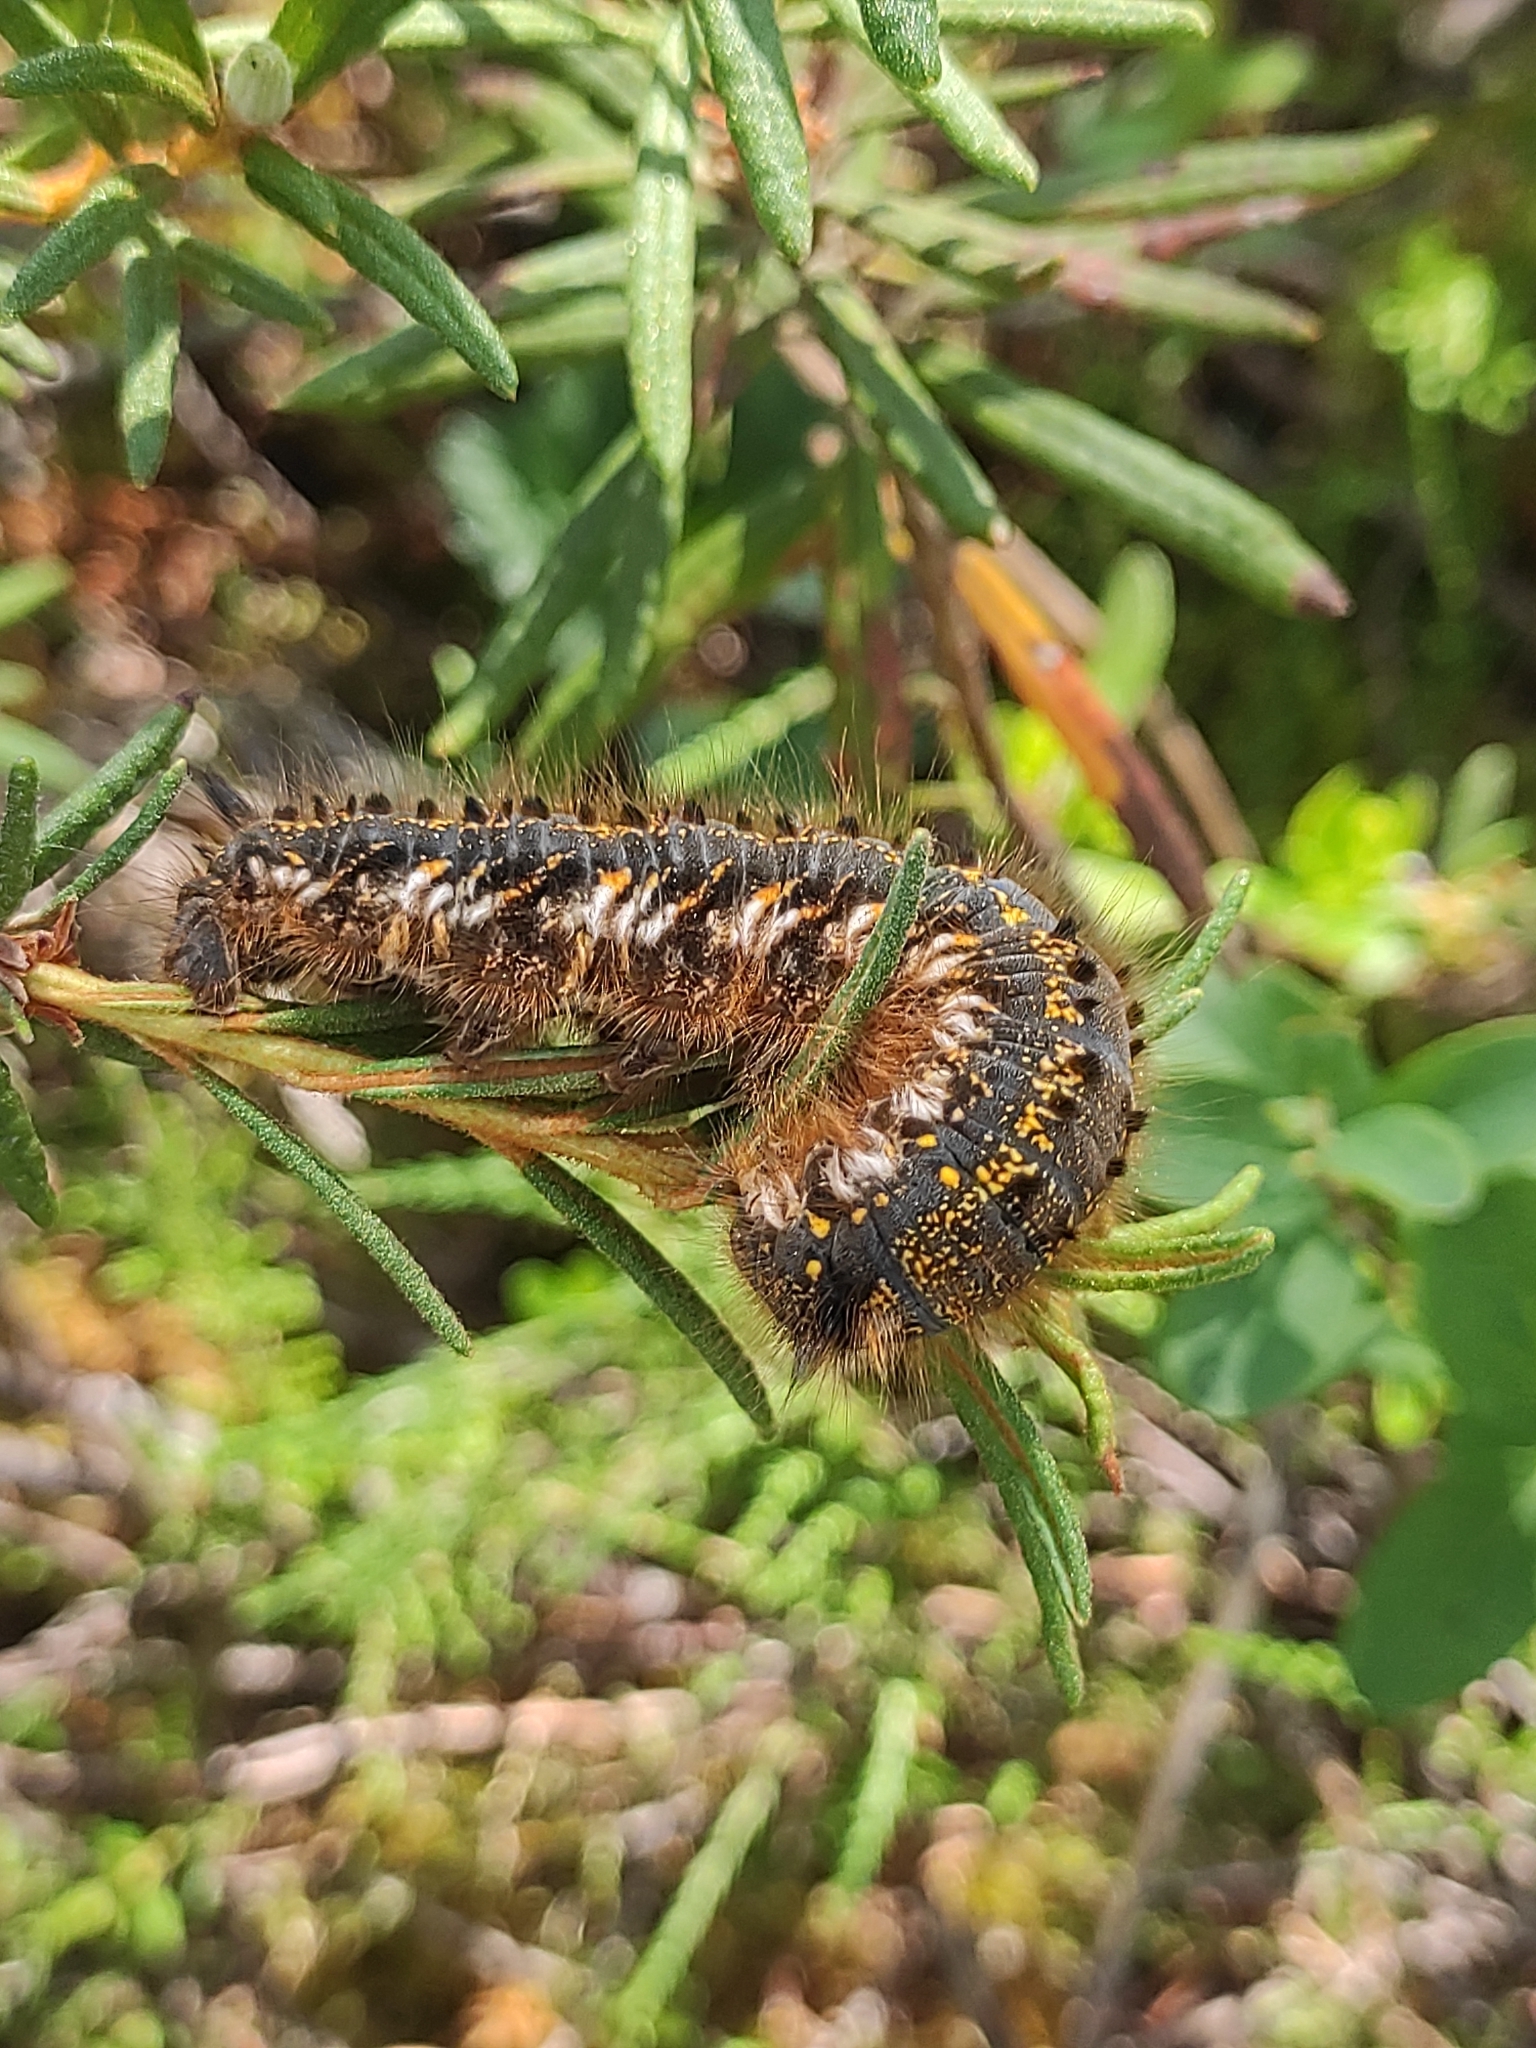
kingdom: Animalia
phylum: Arthropoda
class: Insecta
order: Lepidoptera
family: Lasiocampidae
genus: Euthrix
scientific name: Euthrix potatoria
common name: Drinker
